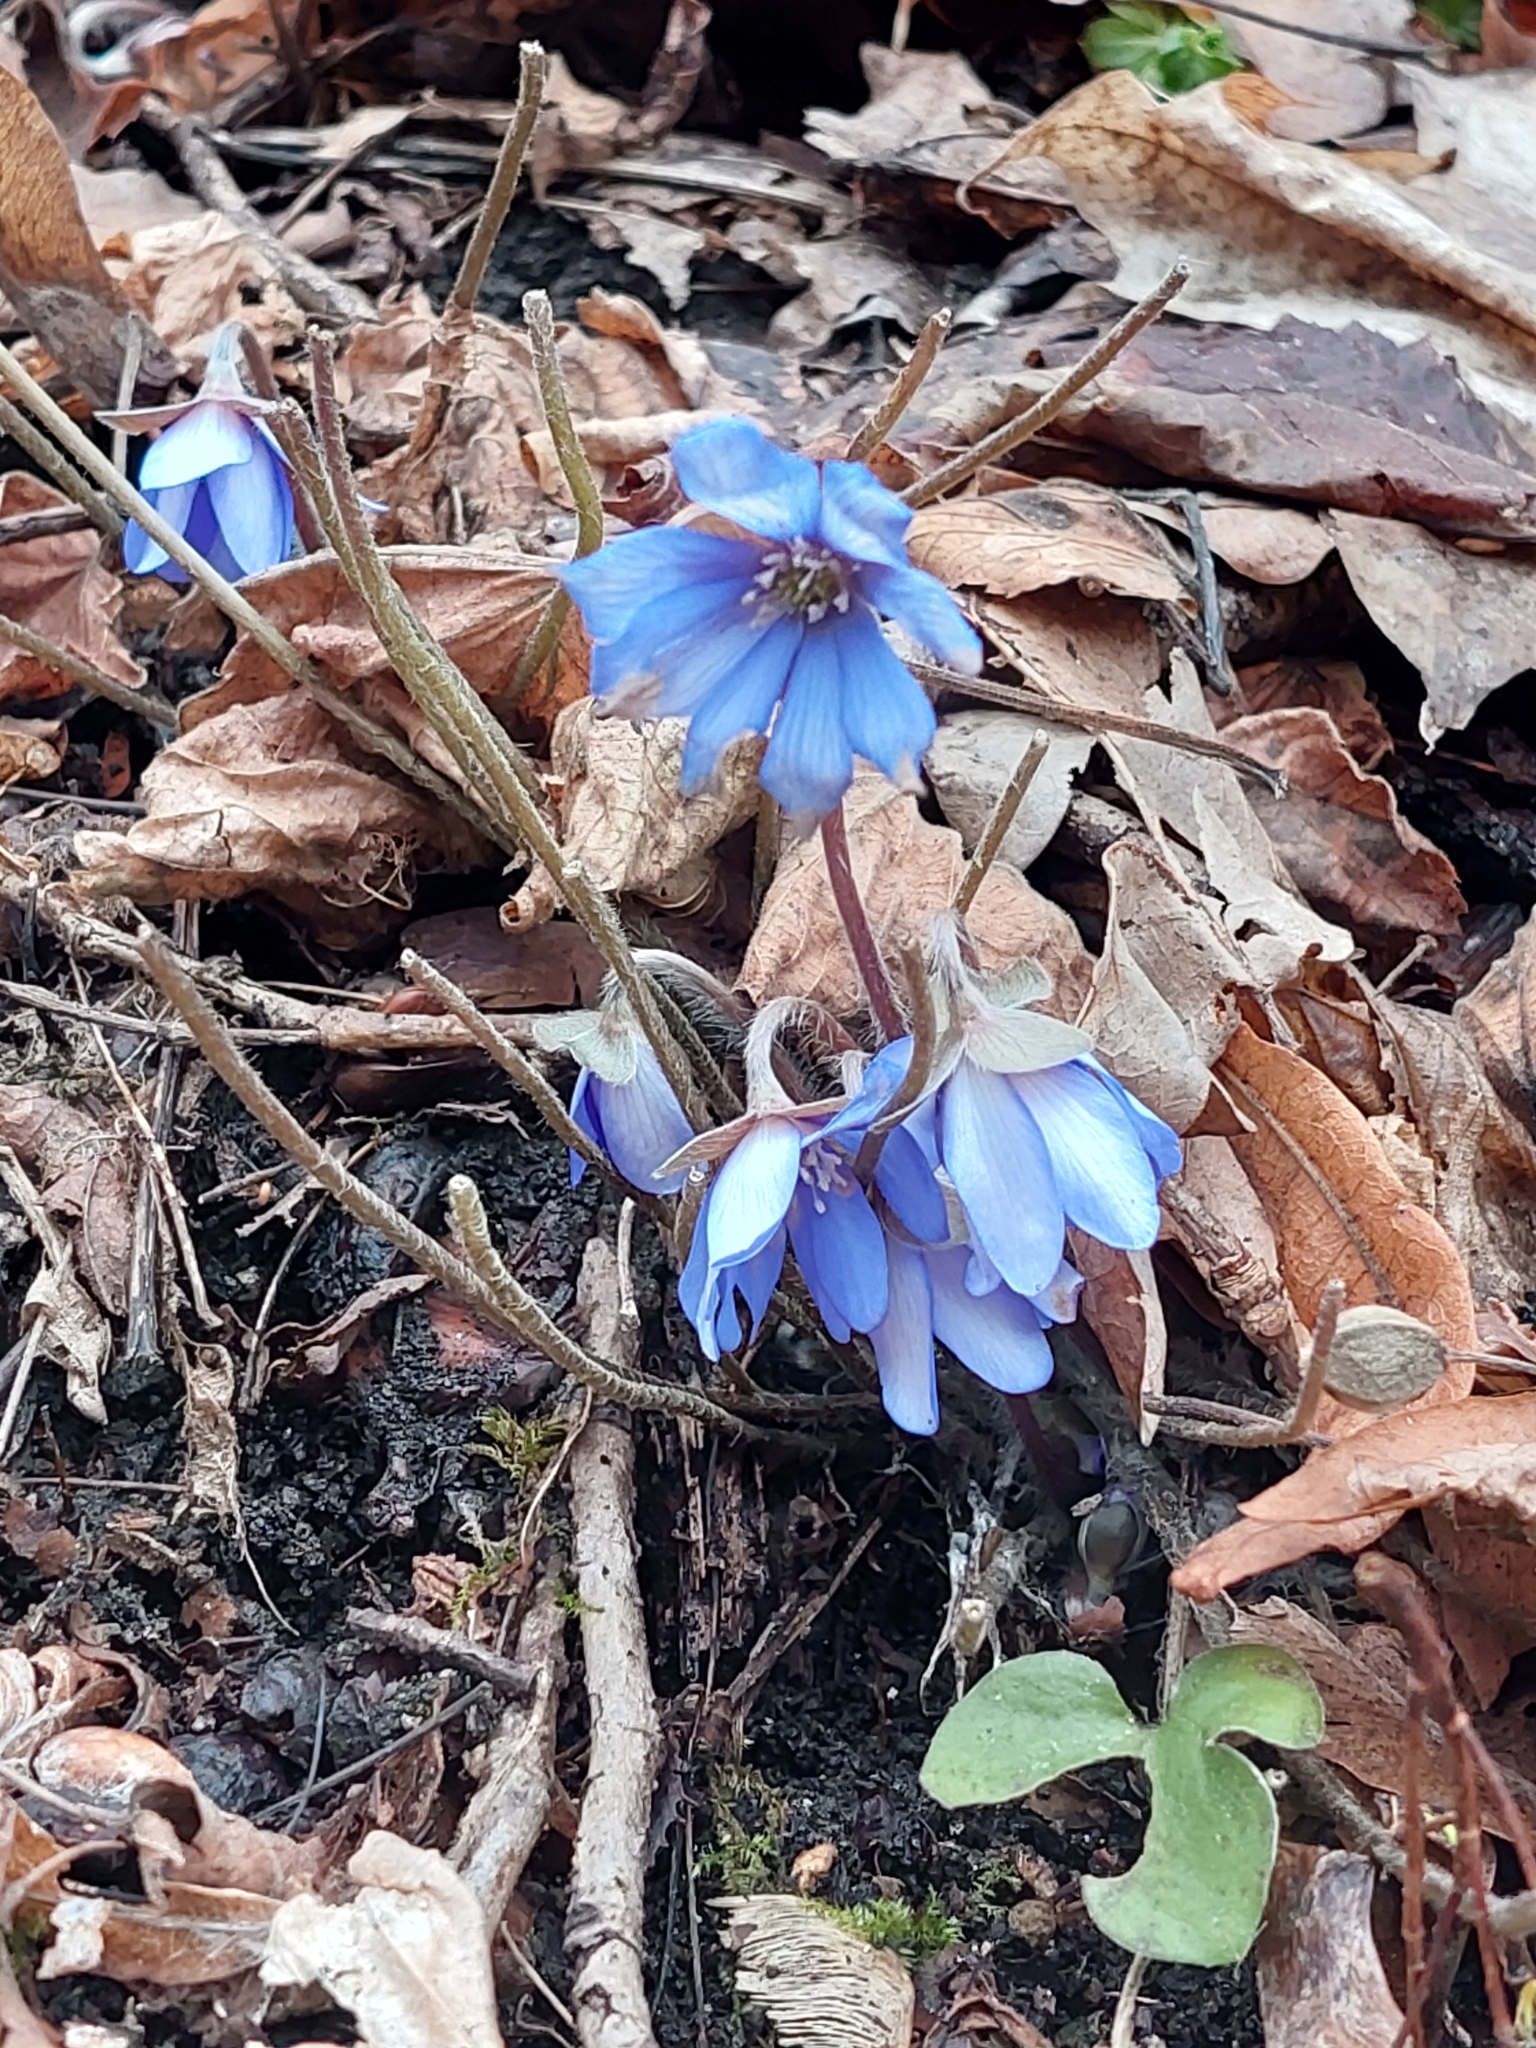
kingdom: Plantae
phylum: Tracheophyta
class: Magnoliopsida
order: Ranunculales
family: Ranunculaceae
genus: Hepatica
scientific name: Hepatica nobilis
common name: Liverleaf
